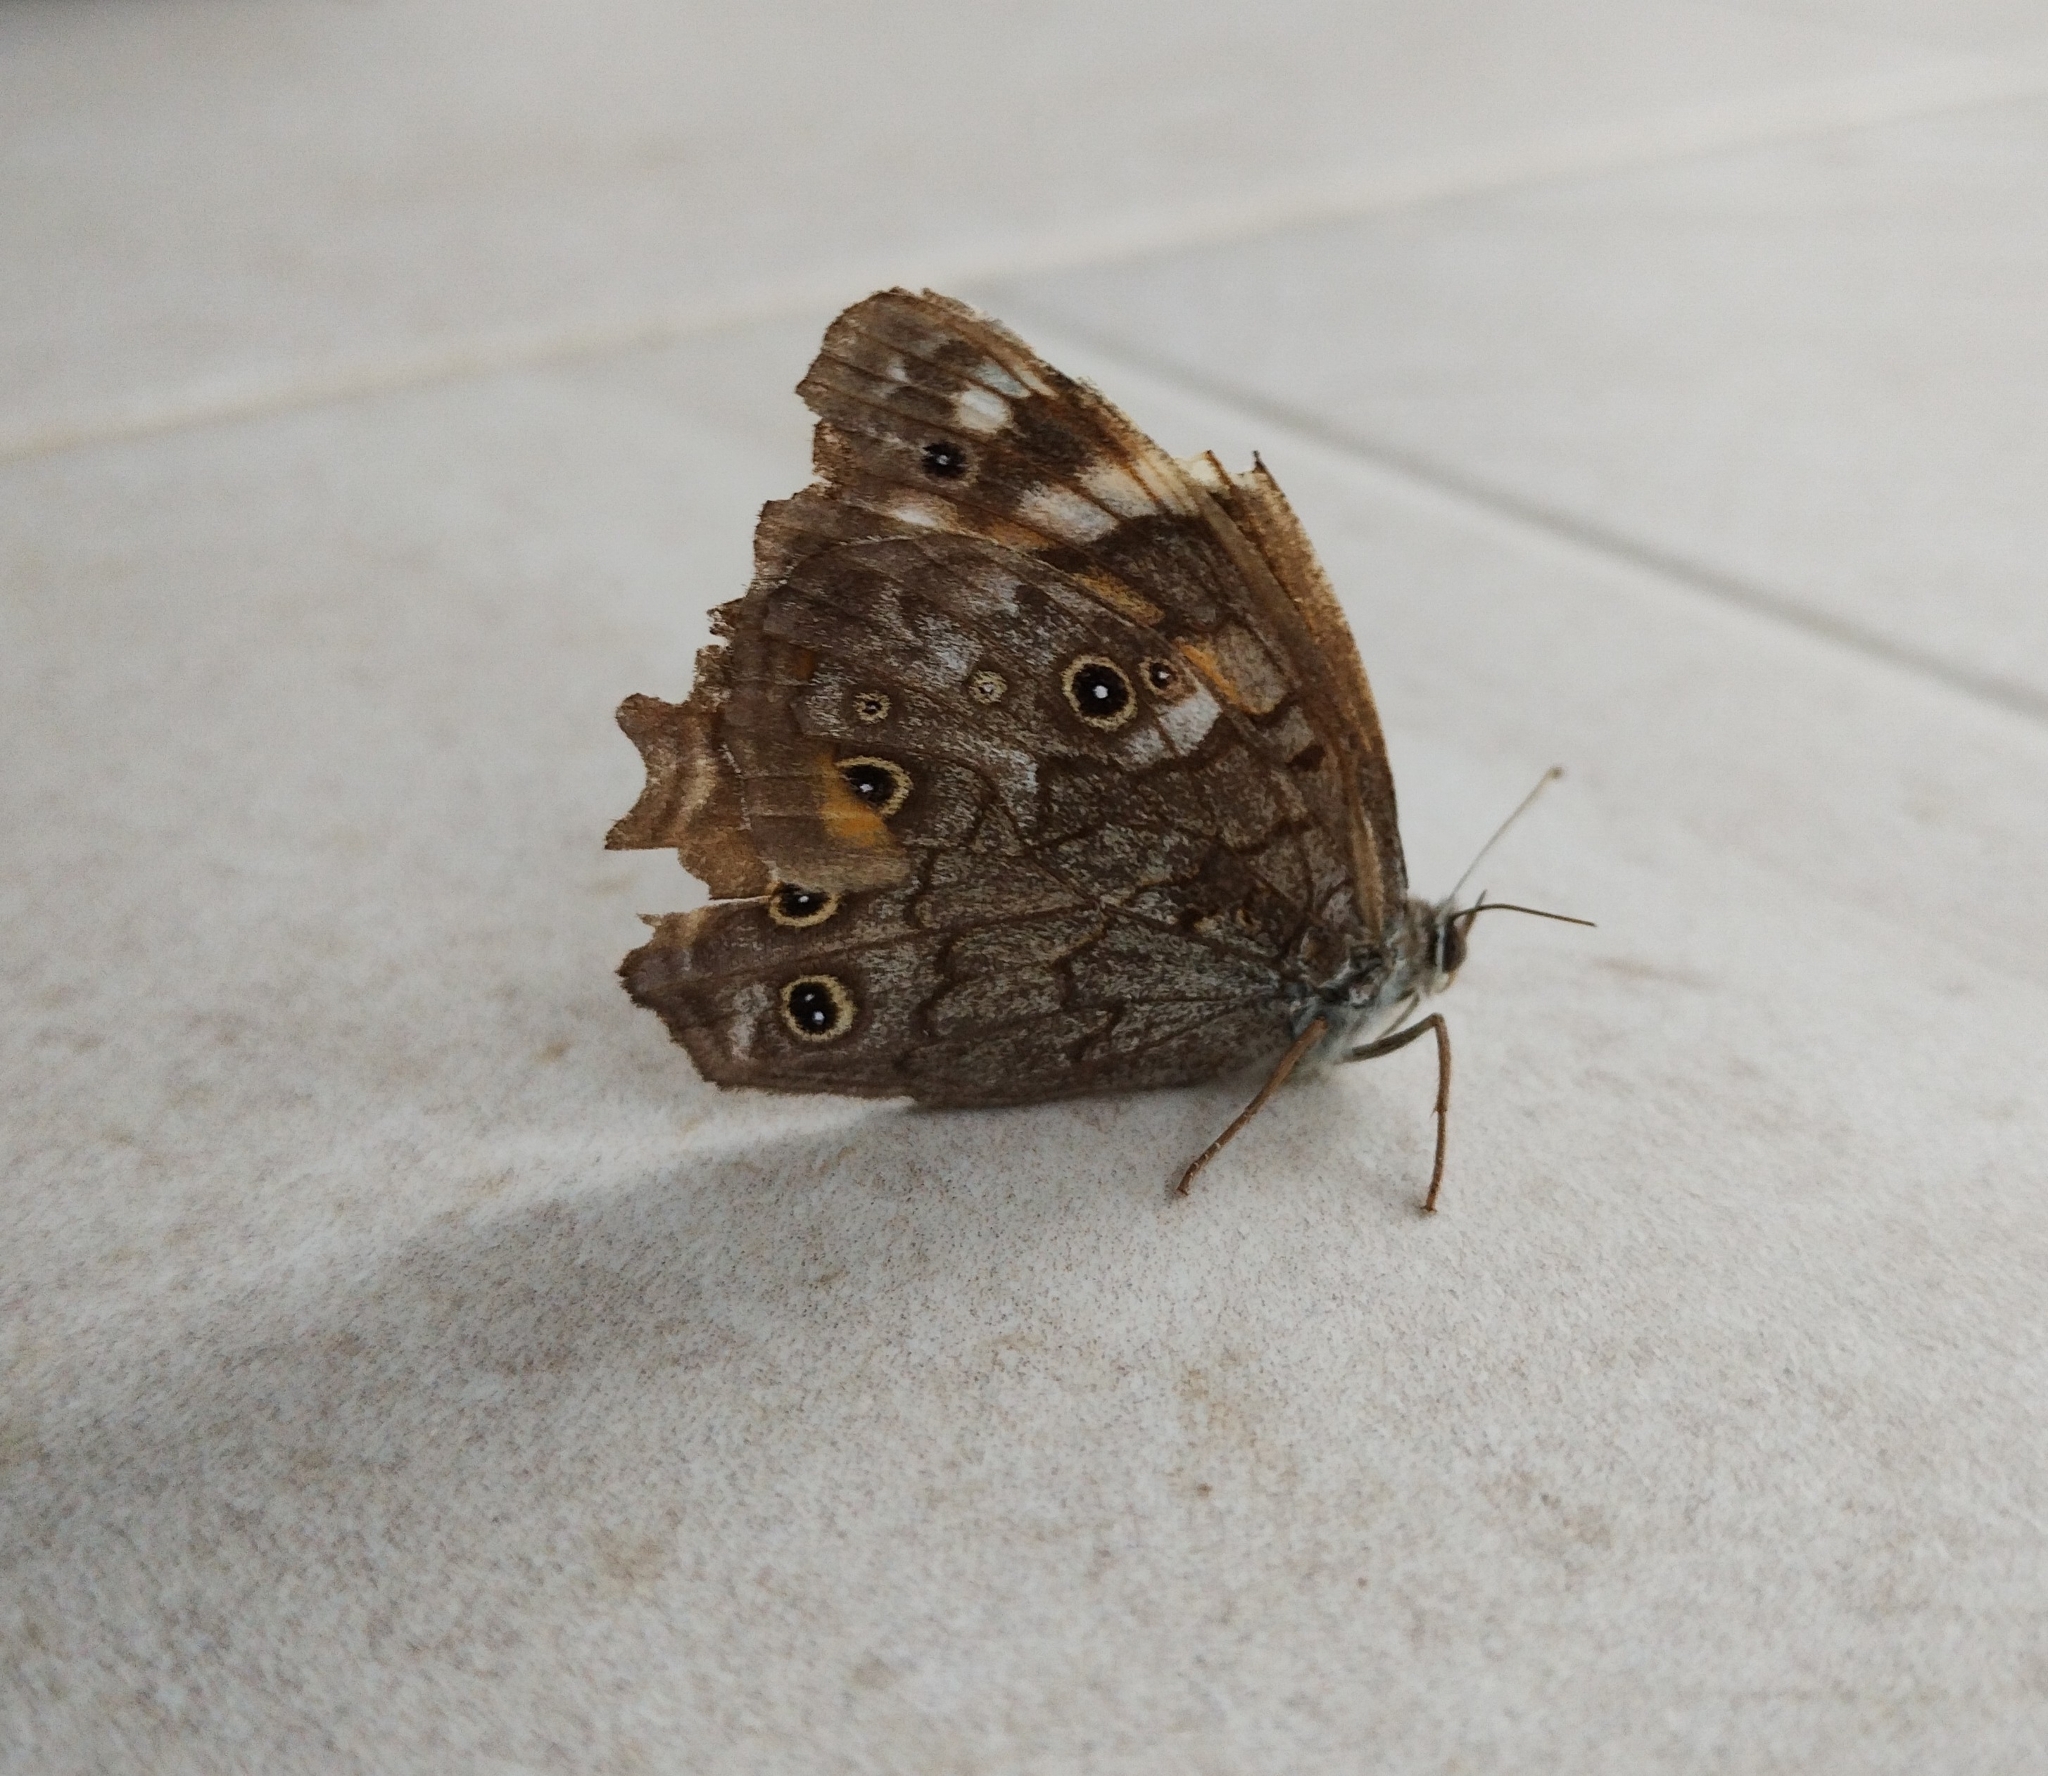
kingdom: Animalia
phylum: Arthropoda
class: Insecta
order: Lepidoptera
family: Nymphalidae
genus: Kirinia
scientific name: Kirinia roxelana
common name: Lattice brown
